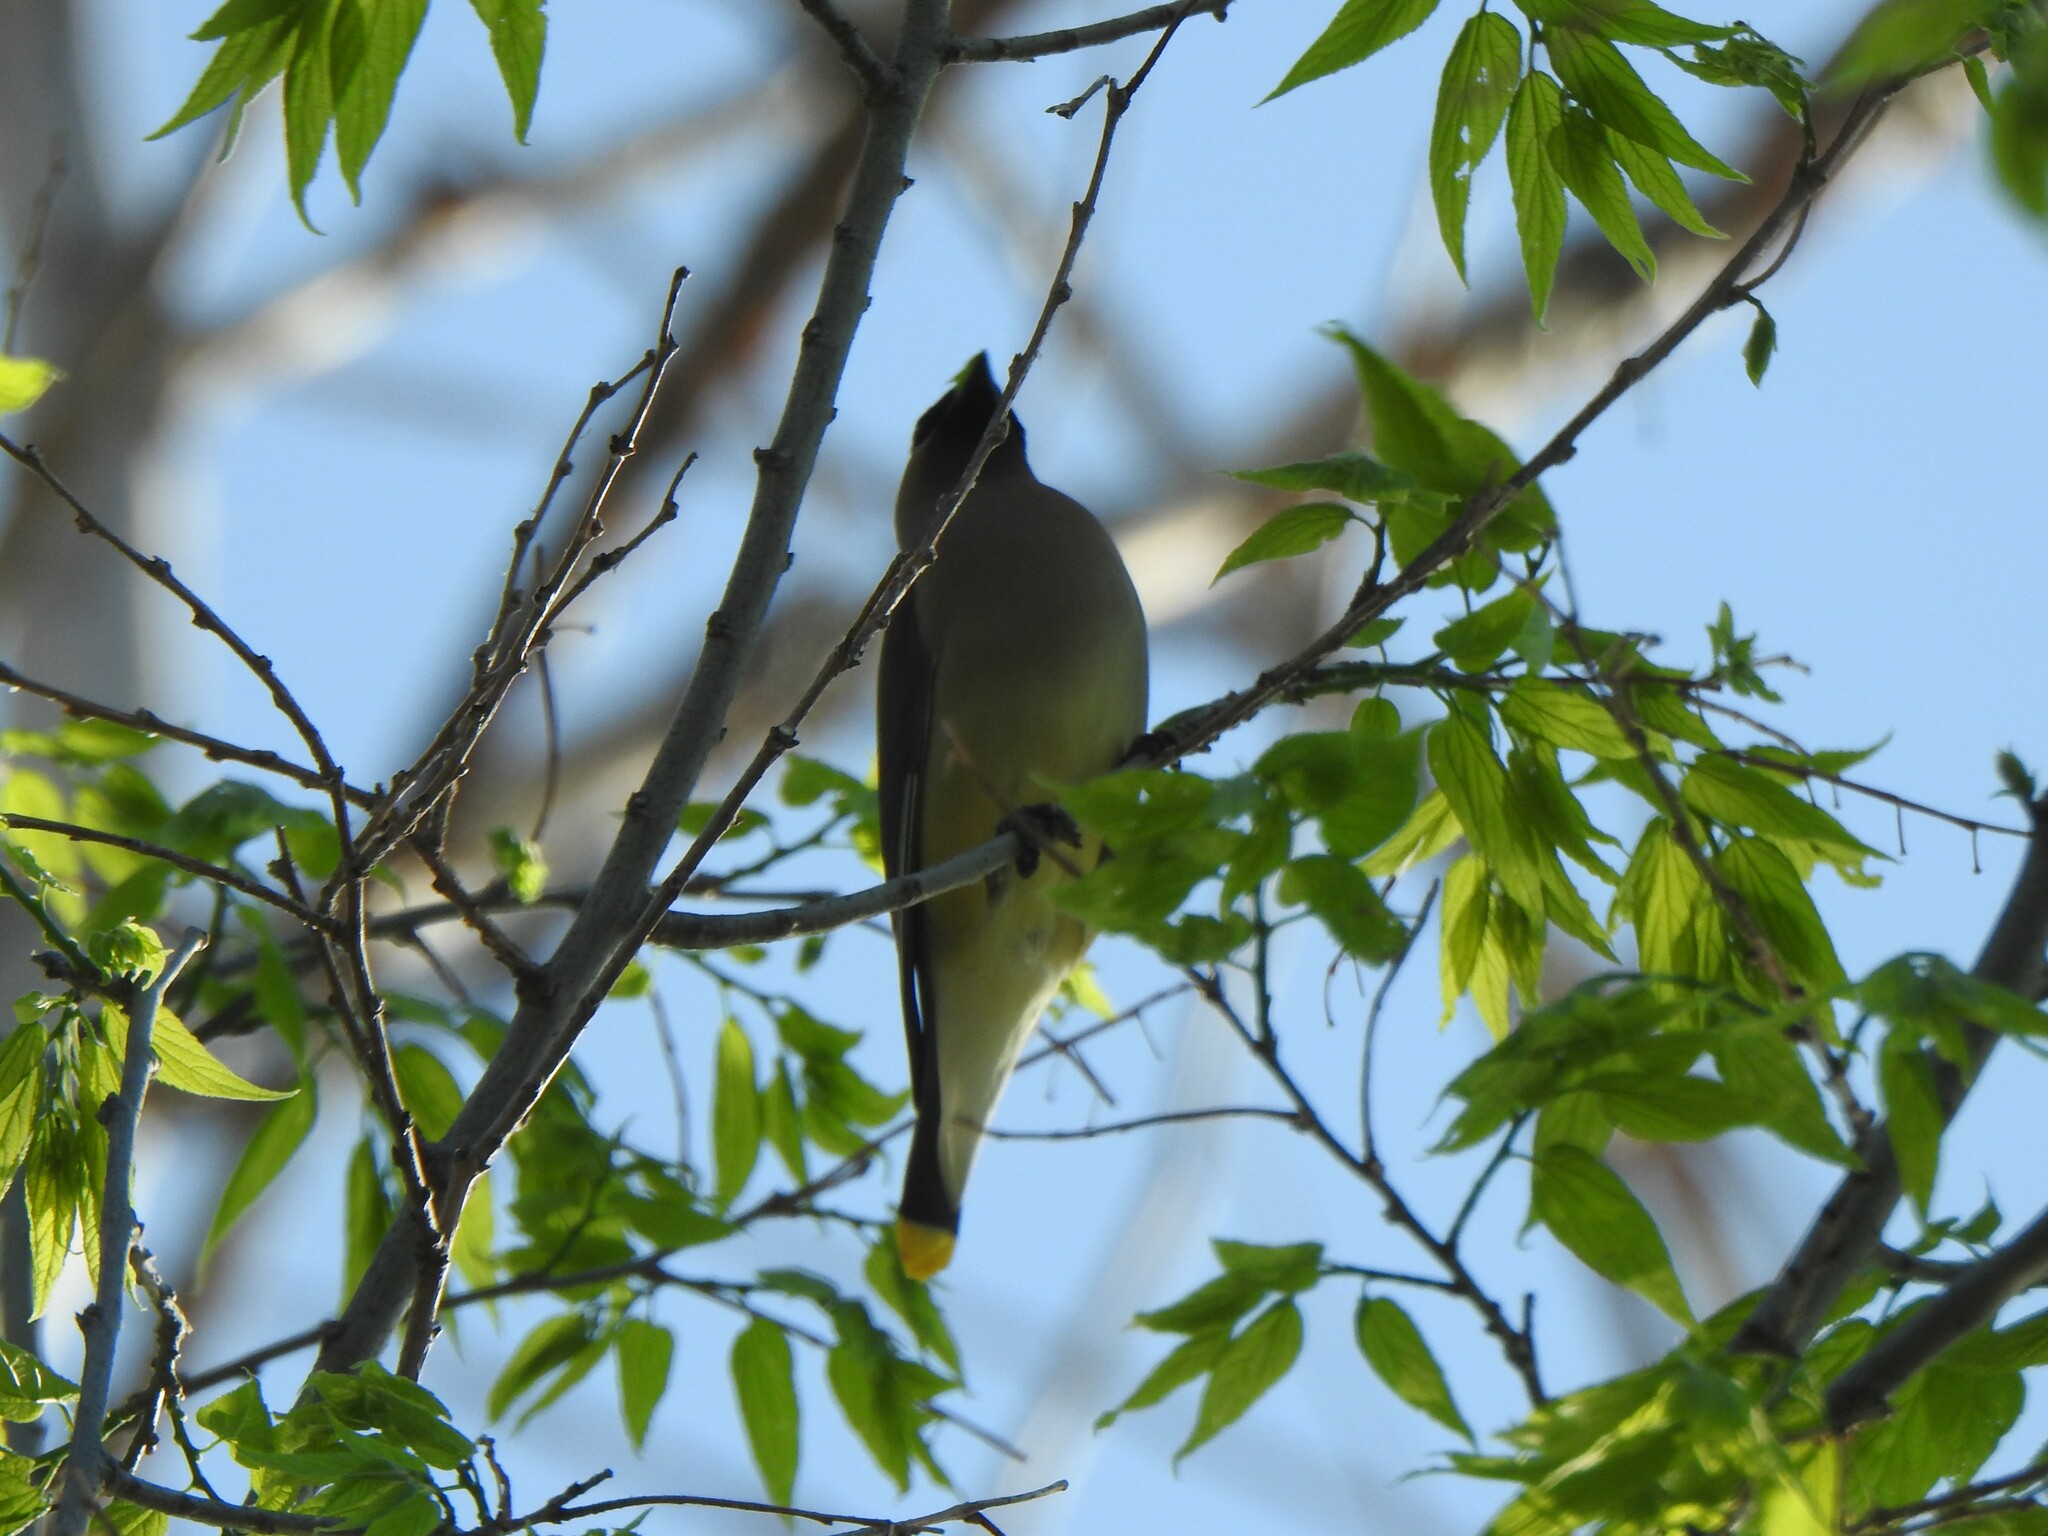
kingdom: Animalia
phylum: Chordata
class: Aves
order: Passeriformes
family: Bombycillidae
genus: Bombycilla
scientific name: Bombycilla cedrorum
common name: Cedar waxwing
